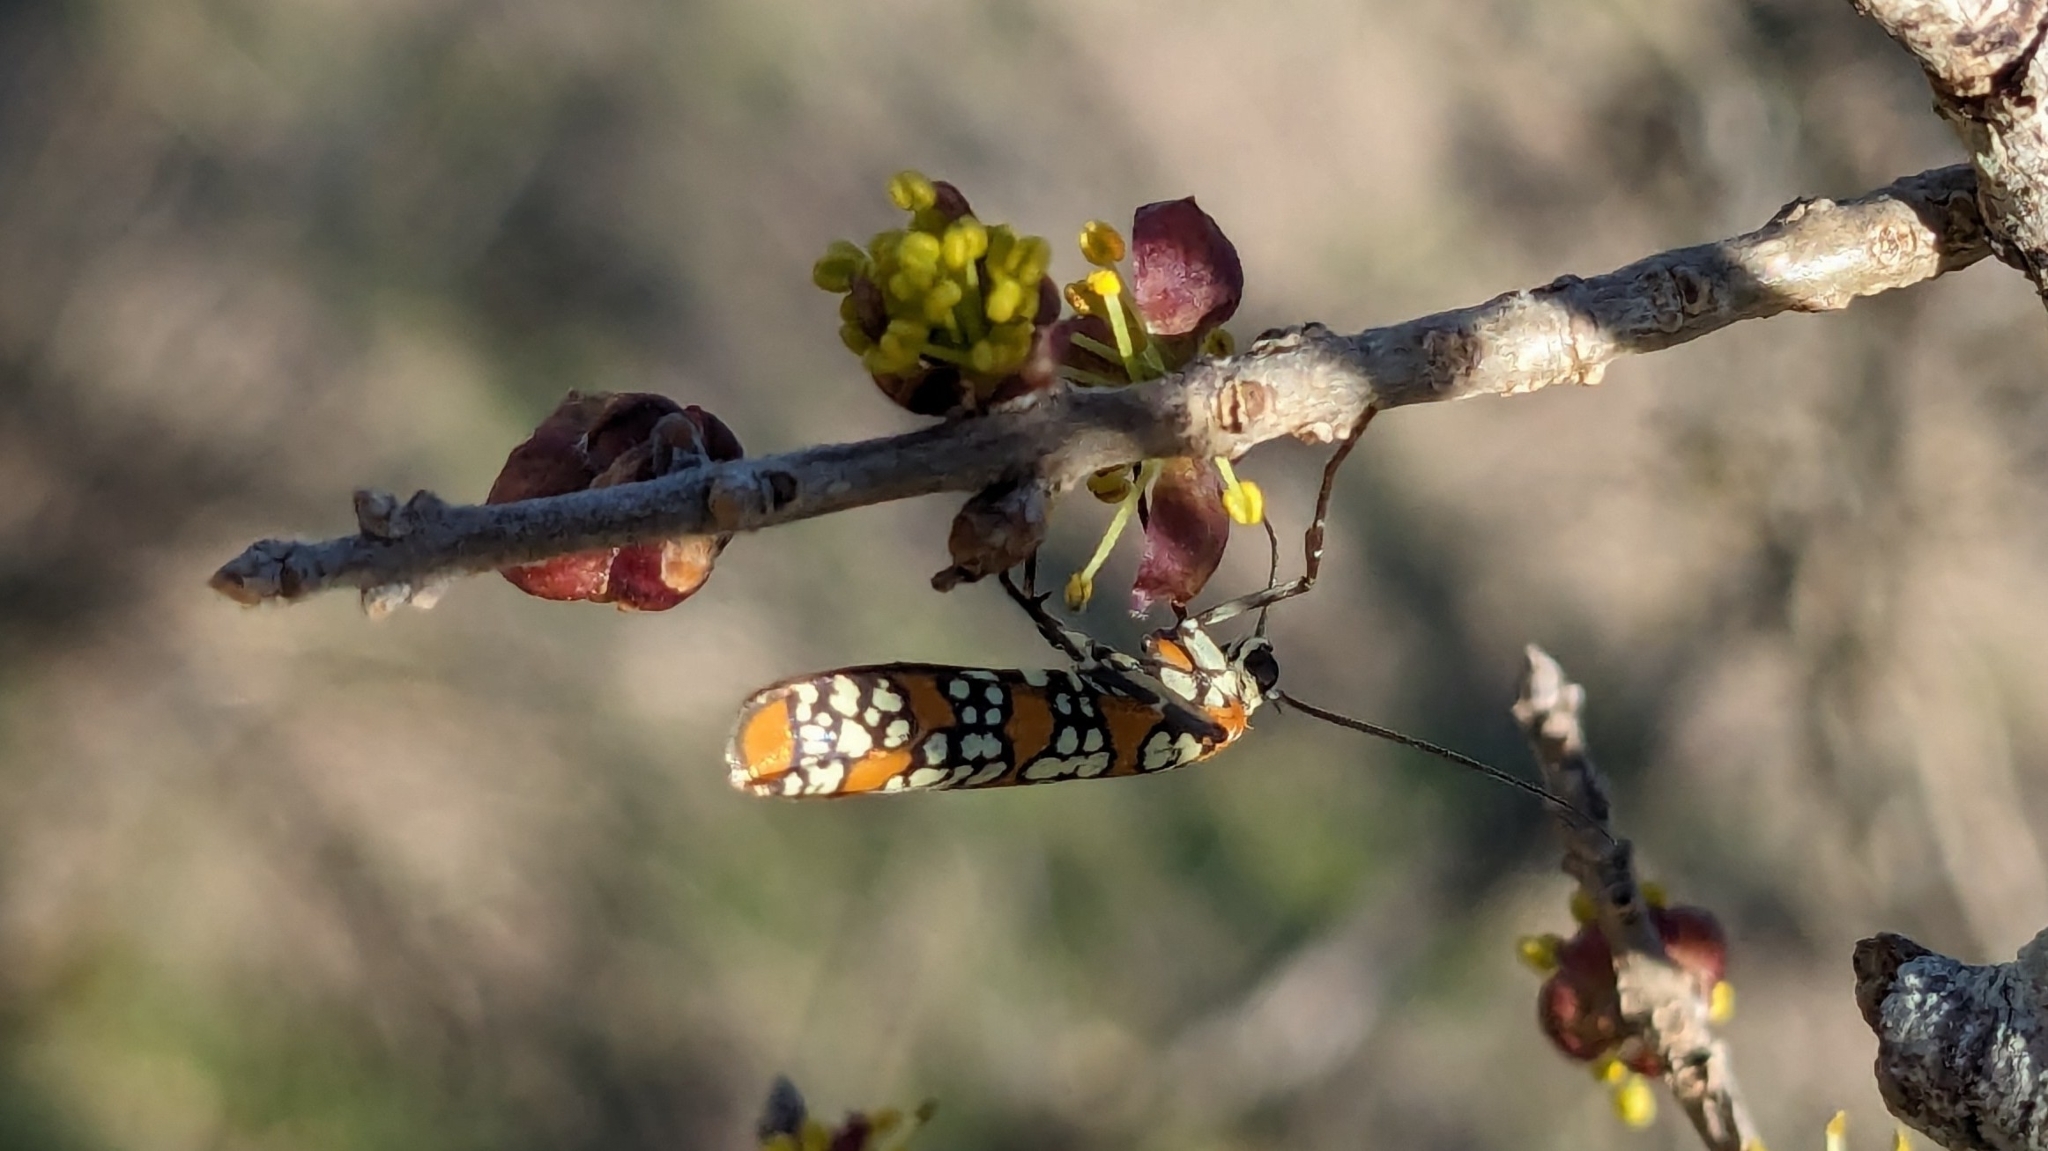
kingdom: Animalia
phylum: Arthropoda
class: Insecta
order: Lepidoptera
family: Attevidae
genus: Atteva
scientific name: Atteva punctella
